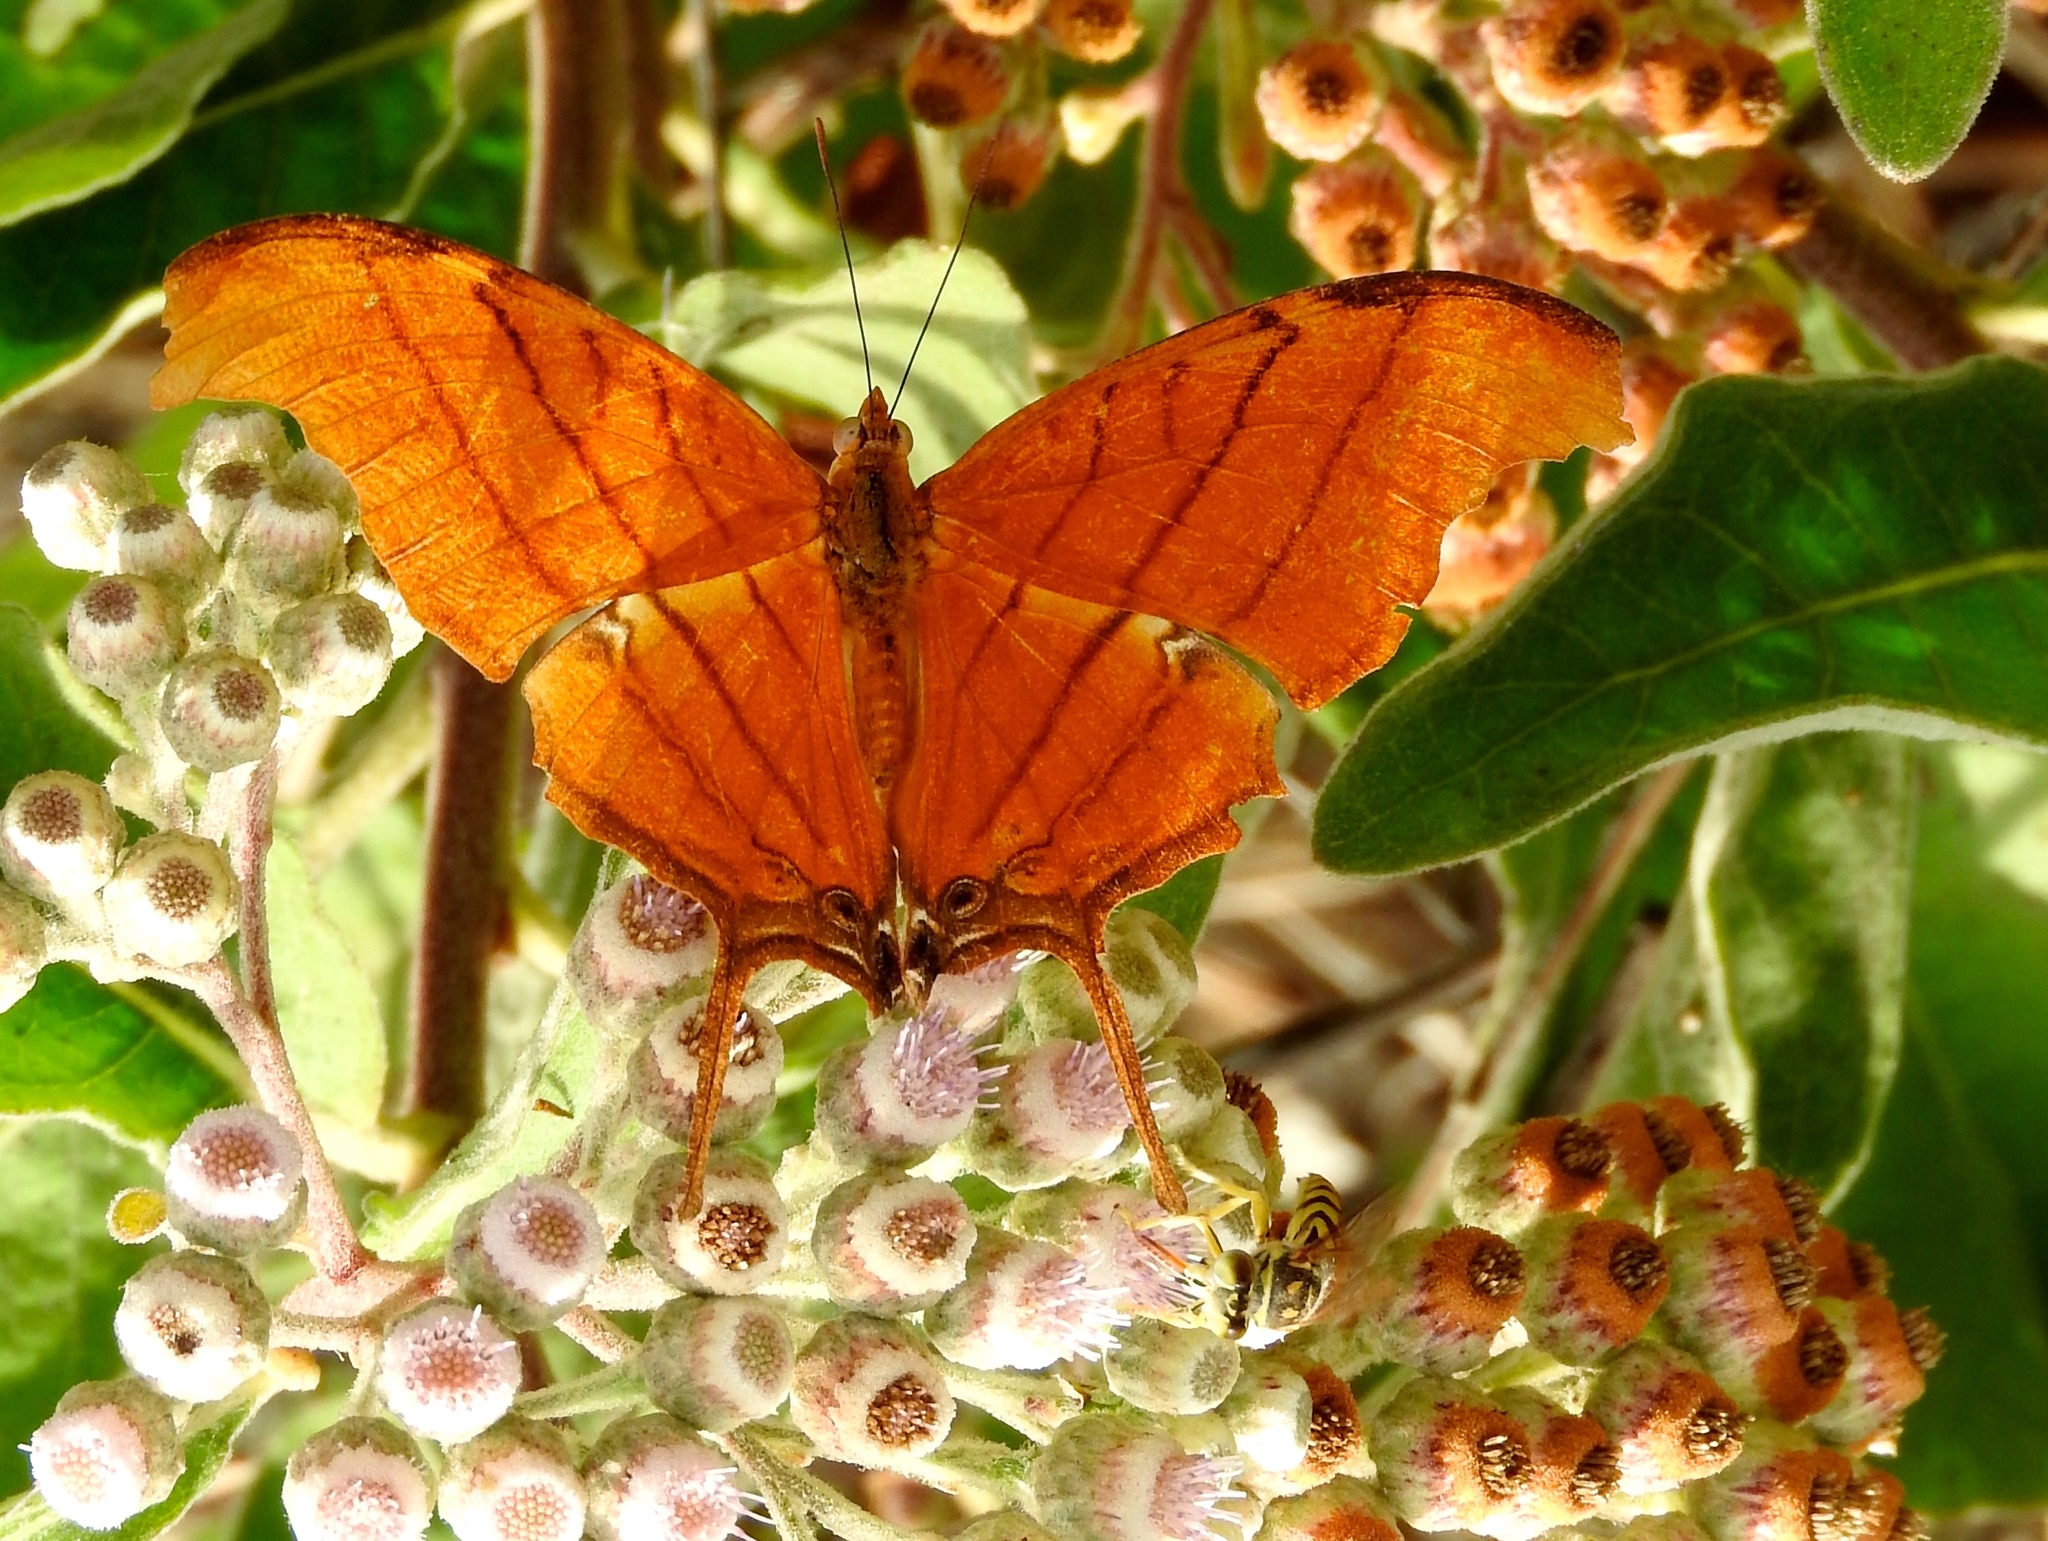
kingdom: Animalia
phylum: Arthropoda
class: Insecta
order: Lepidoptera
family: Nymphalidae
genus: Marpesia
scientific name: Marpesia petreus
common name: Red dagger wing
